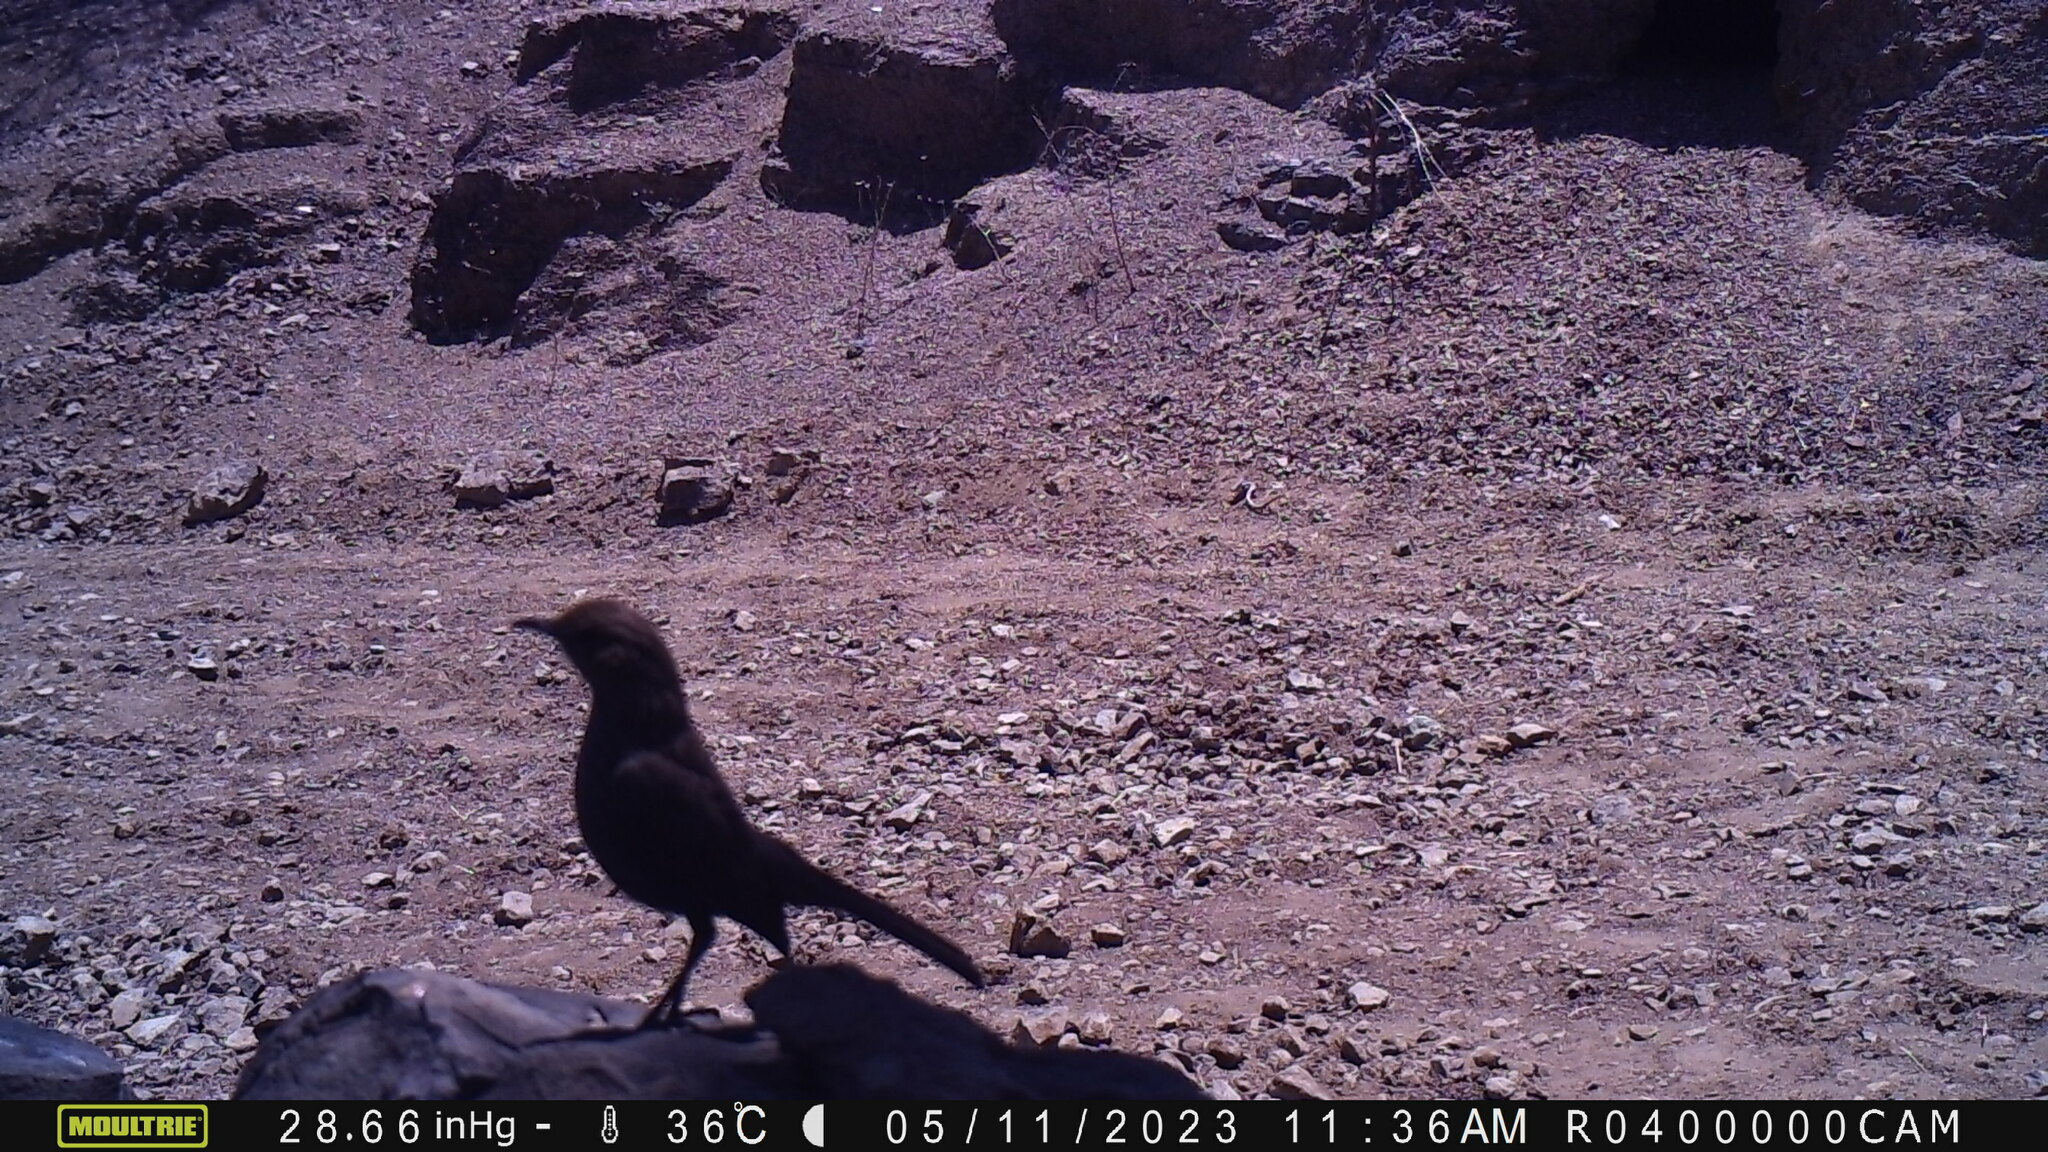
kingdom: Animalia
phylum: Chordata
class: Aves
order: Passeriformes
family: Muscicapidae
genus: Saxicoloides
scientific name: Saxicoloides fulicatus
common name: Indian robin
